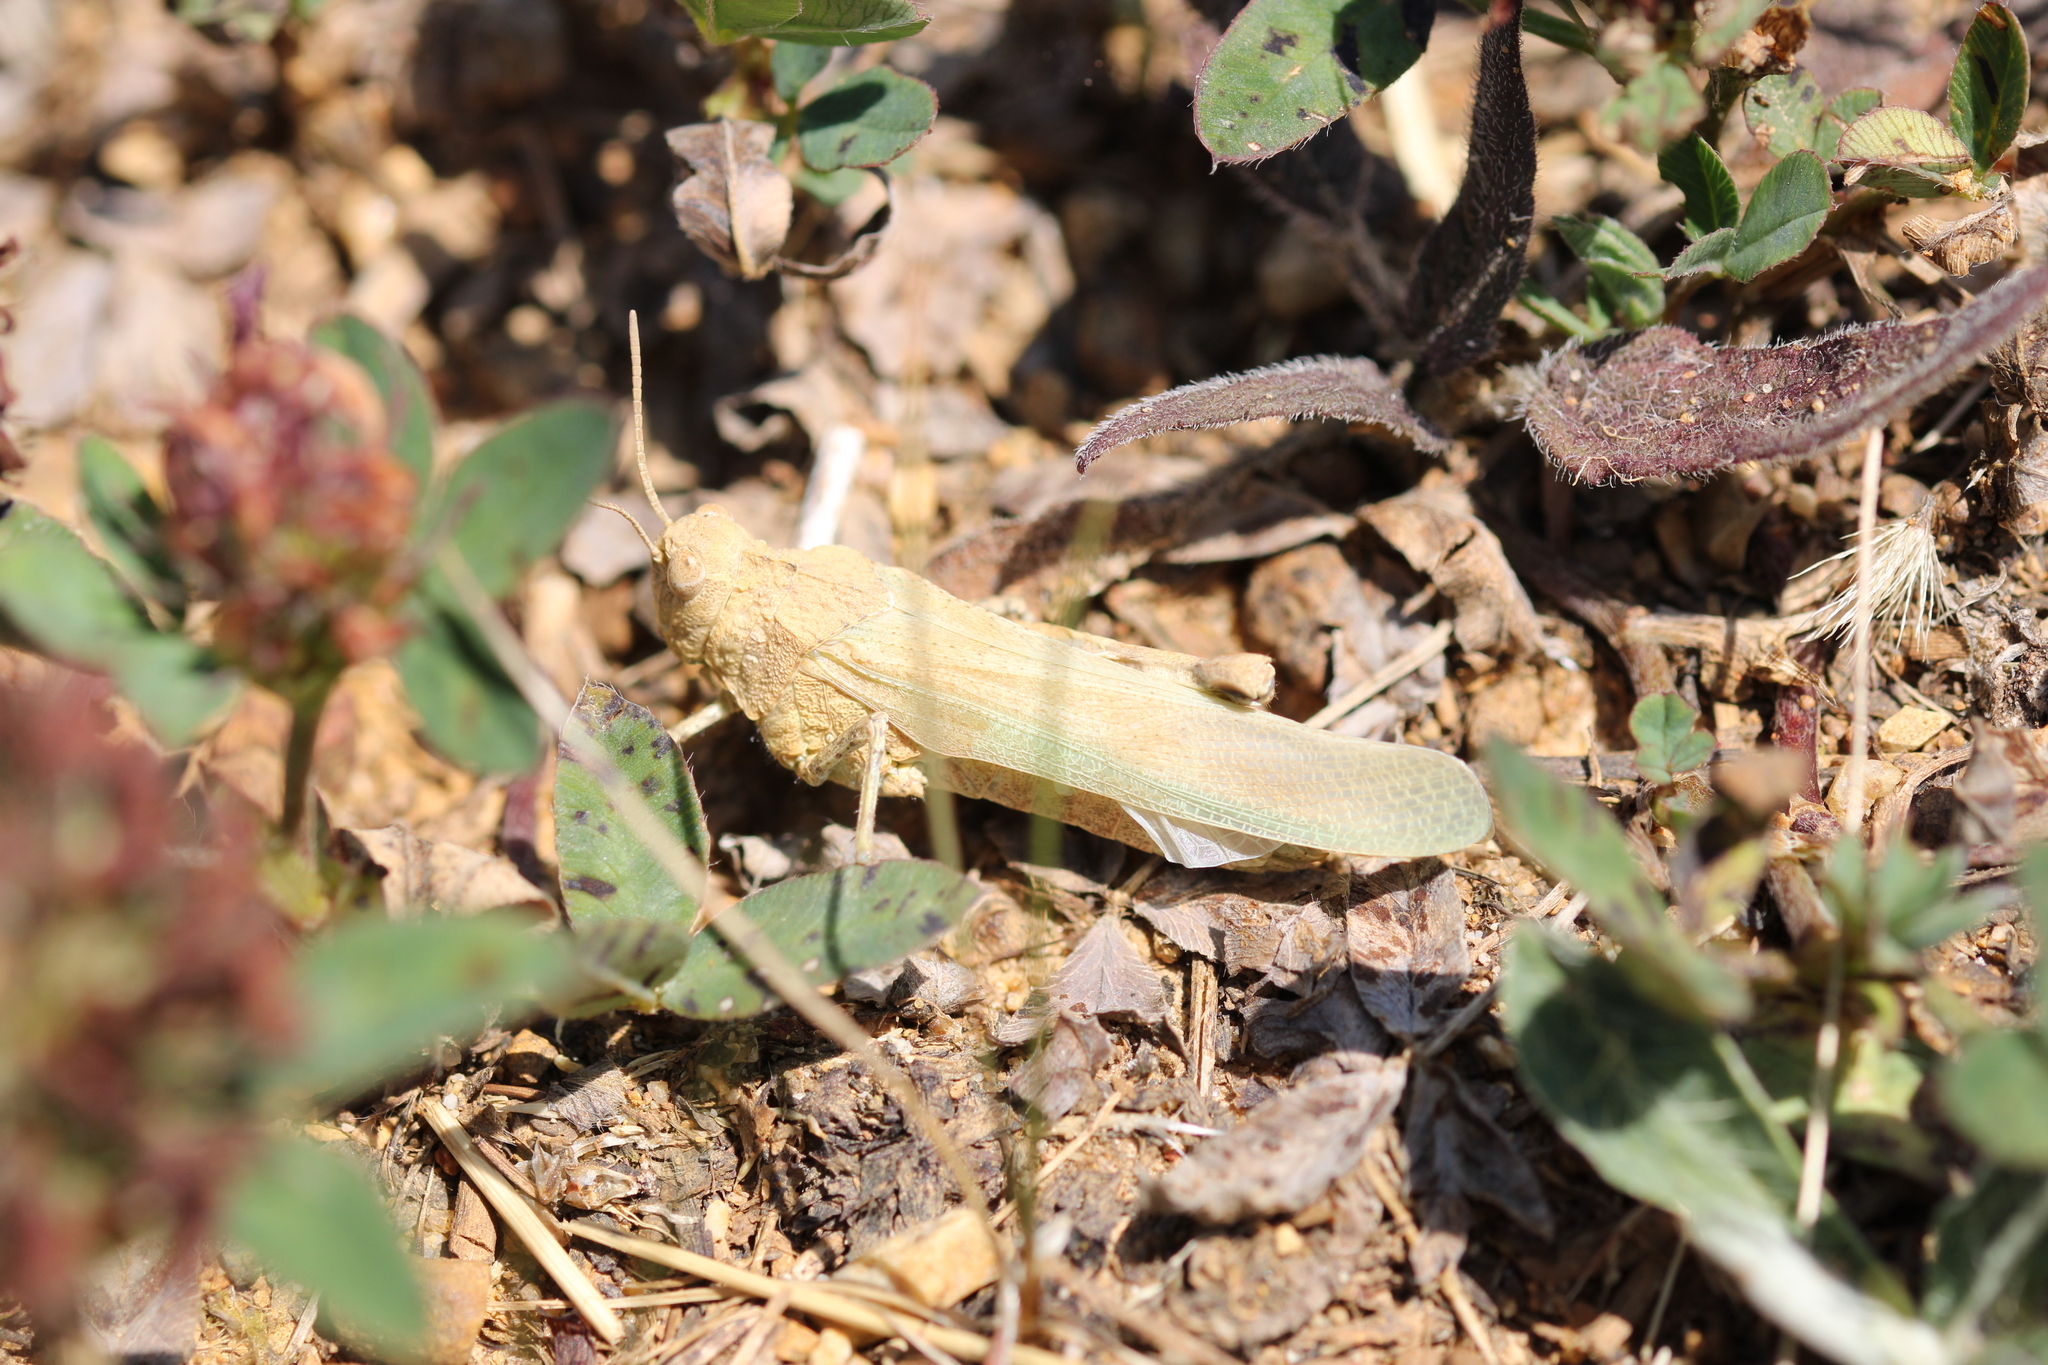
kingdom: Animalia
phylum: Arthropoda
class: Insecta
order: Orthoptera
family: Acrididae
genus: Oedipoda
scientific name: Oedipoda caerulescens
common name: Blue-winged grasshopper
